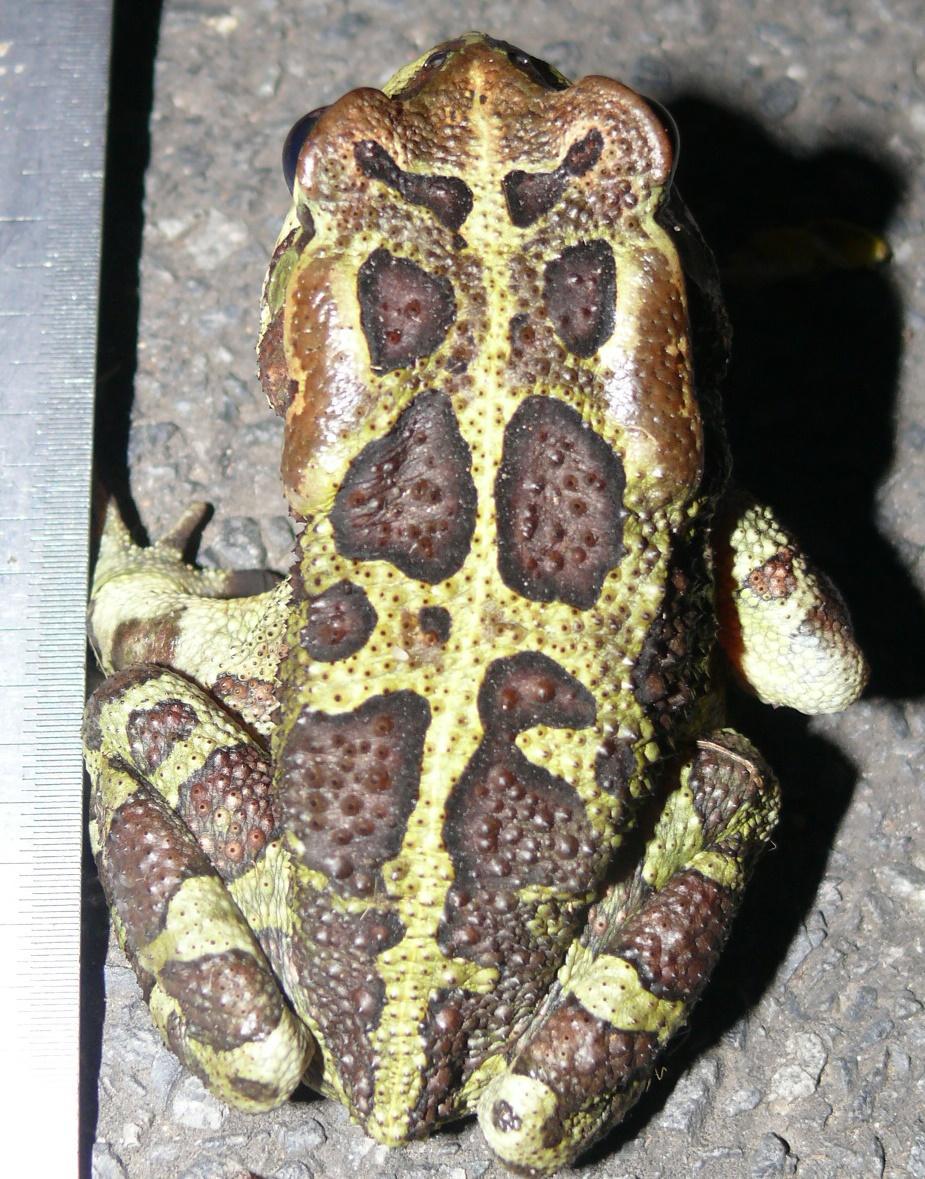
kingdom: Animalia
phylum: Chordata
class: Amphibia
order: Anura
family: Bufonidae
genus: Sclerophrys
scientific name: Sclerophrys pantherina
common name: Panther toad
